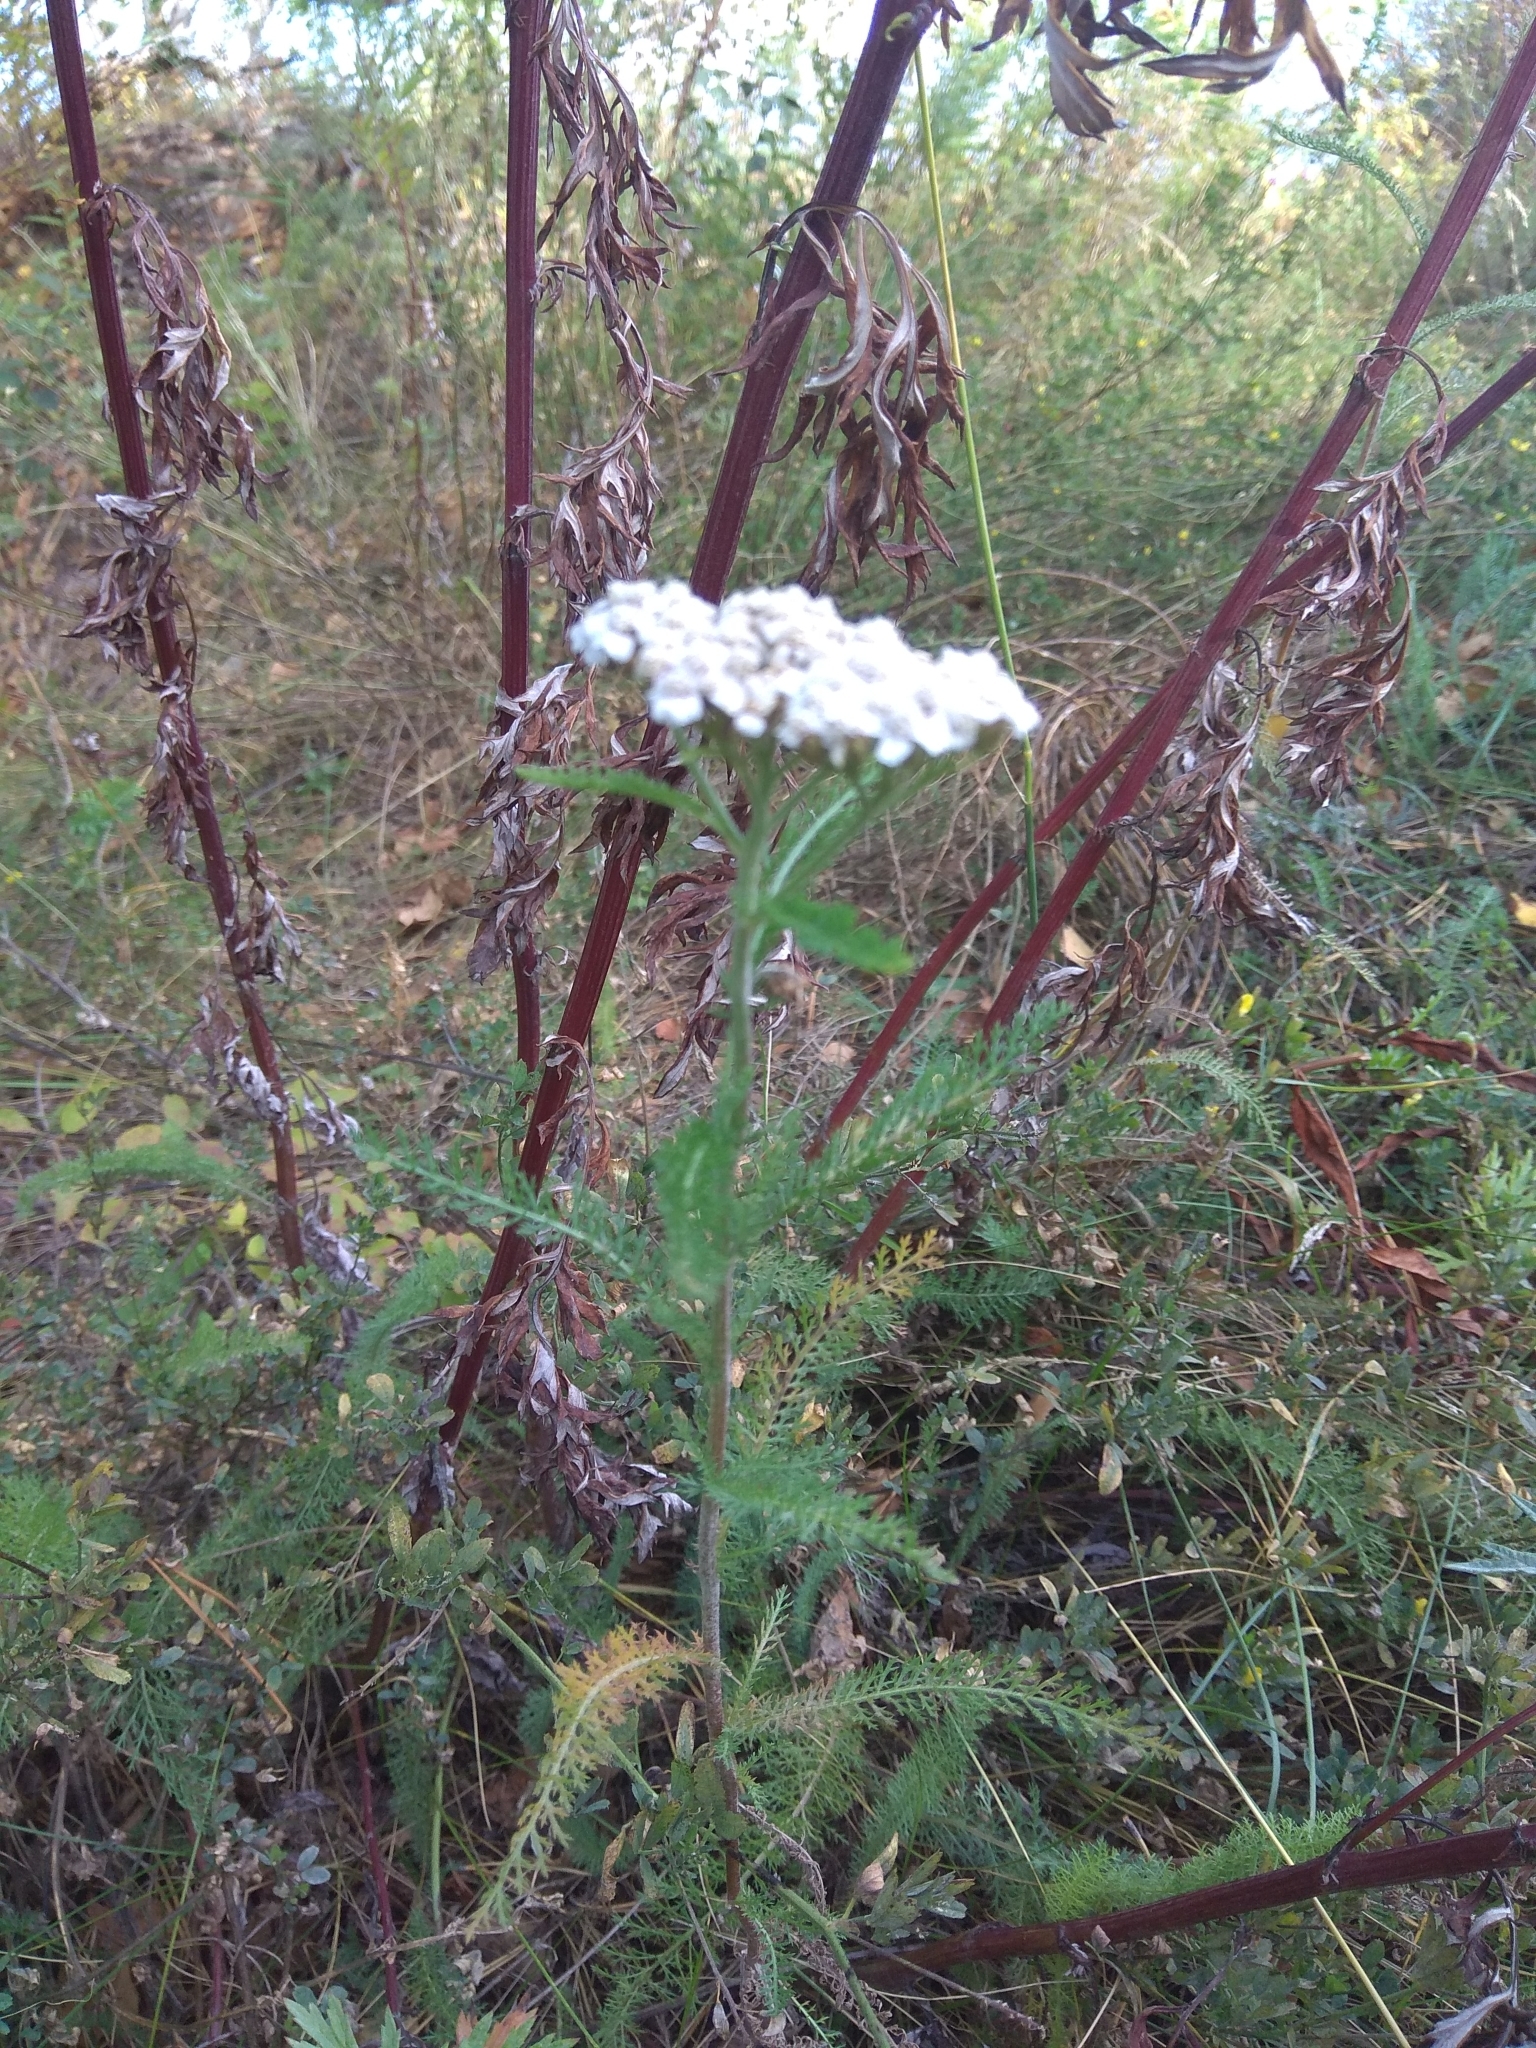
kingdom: Plantae
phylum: Tracheophyta
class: Magnoliopsida
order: Asterales
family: Asteraceae
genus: Achillea
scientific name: Achillea asiatica
